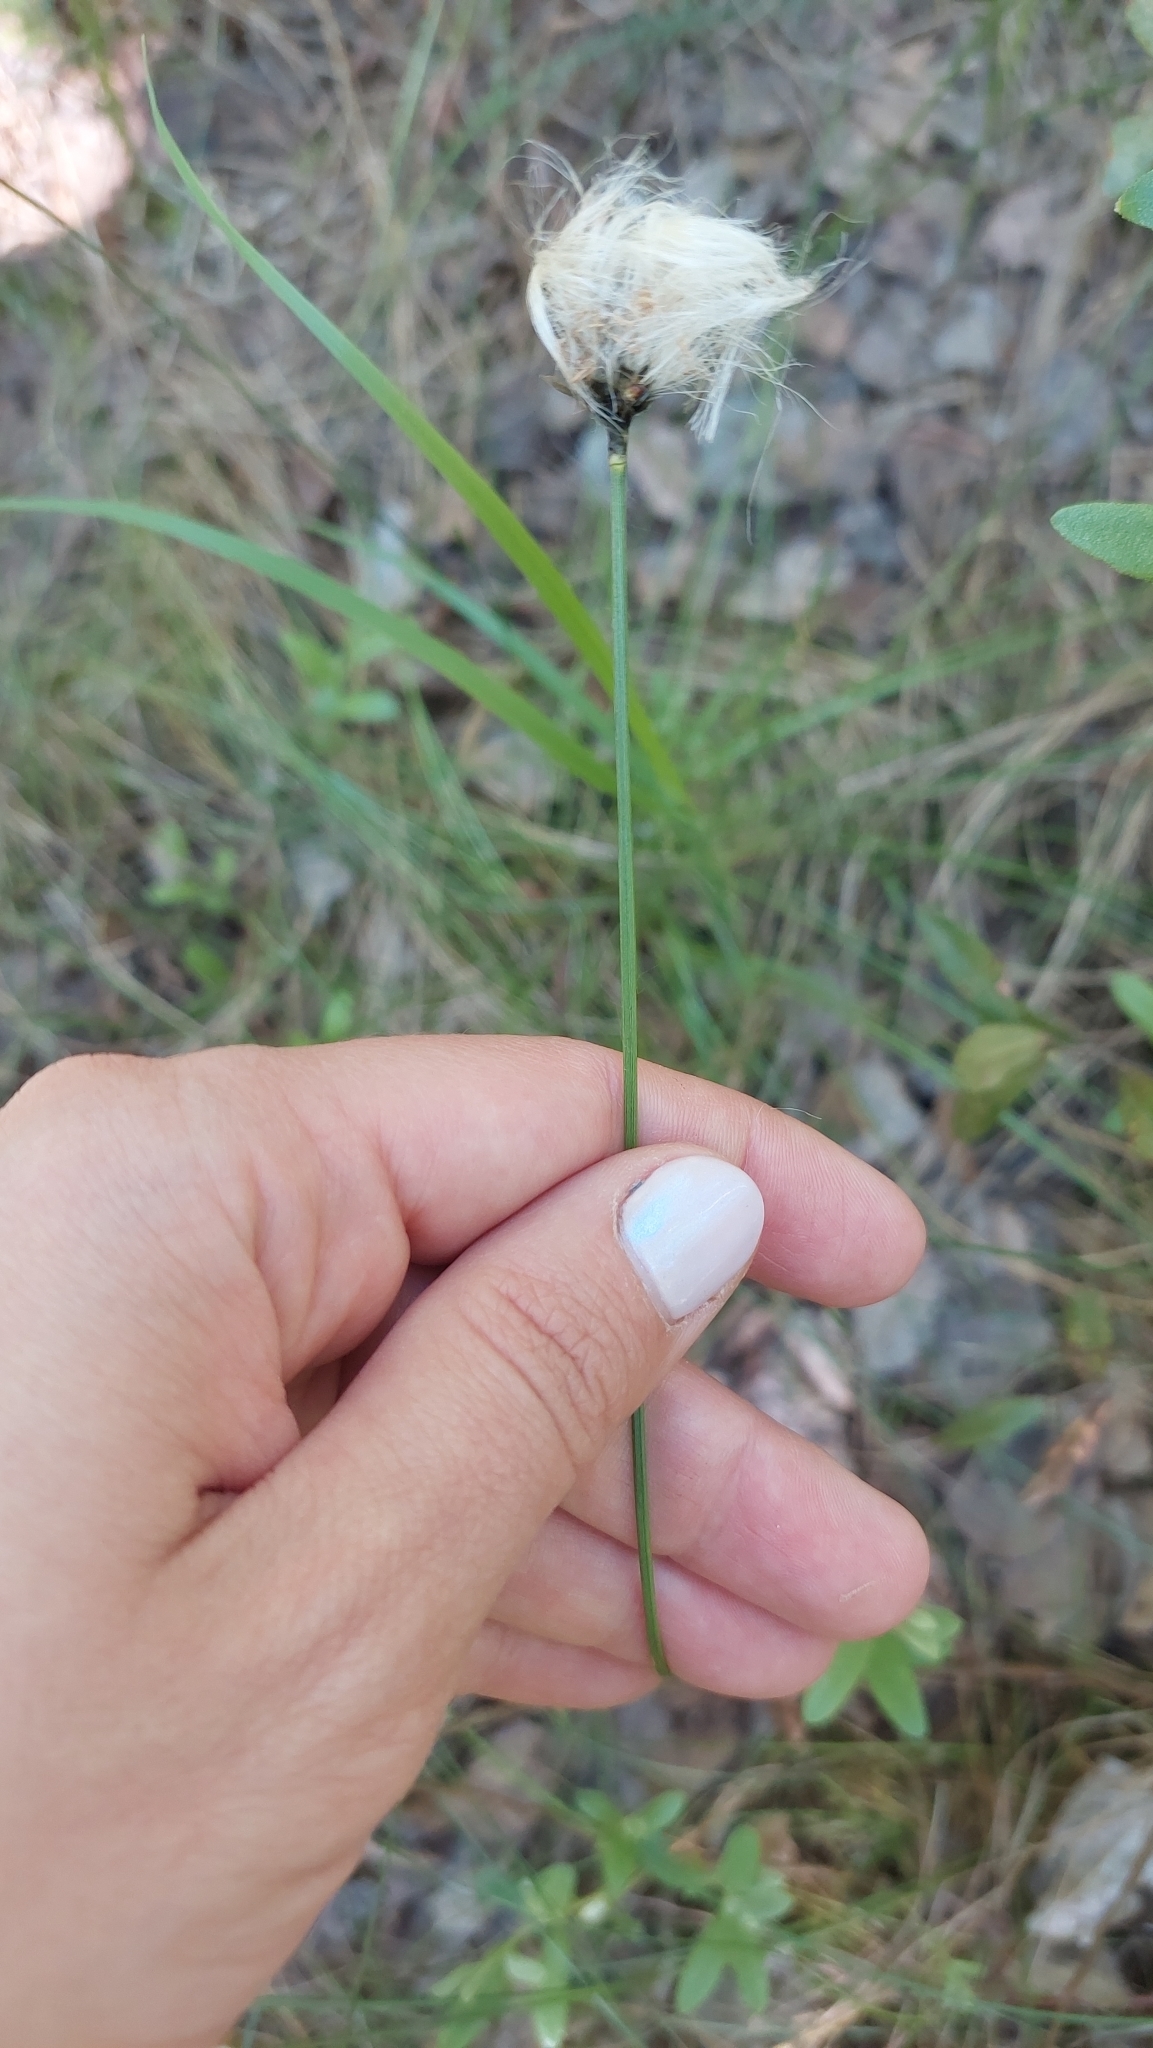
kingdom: Plantae
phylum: Tracheophyta
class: Liliopsida
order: Poales
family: Cyperaceae
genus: Eriophorum
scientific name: Eriophorum vaginatum
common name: Hare's-tail cottongrass
